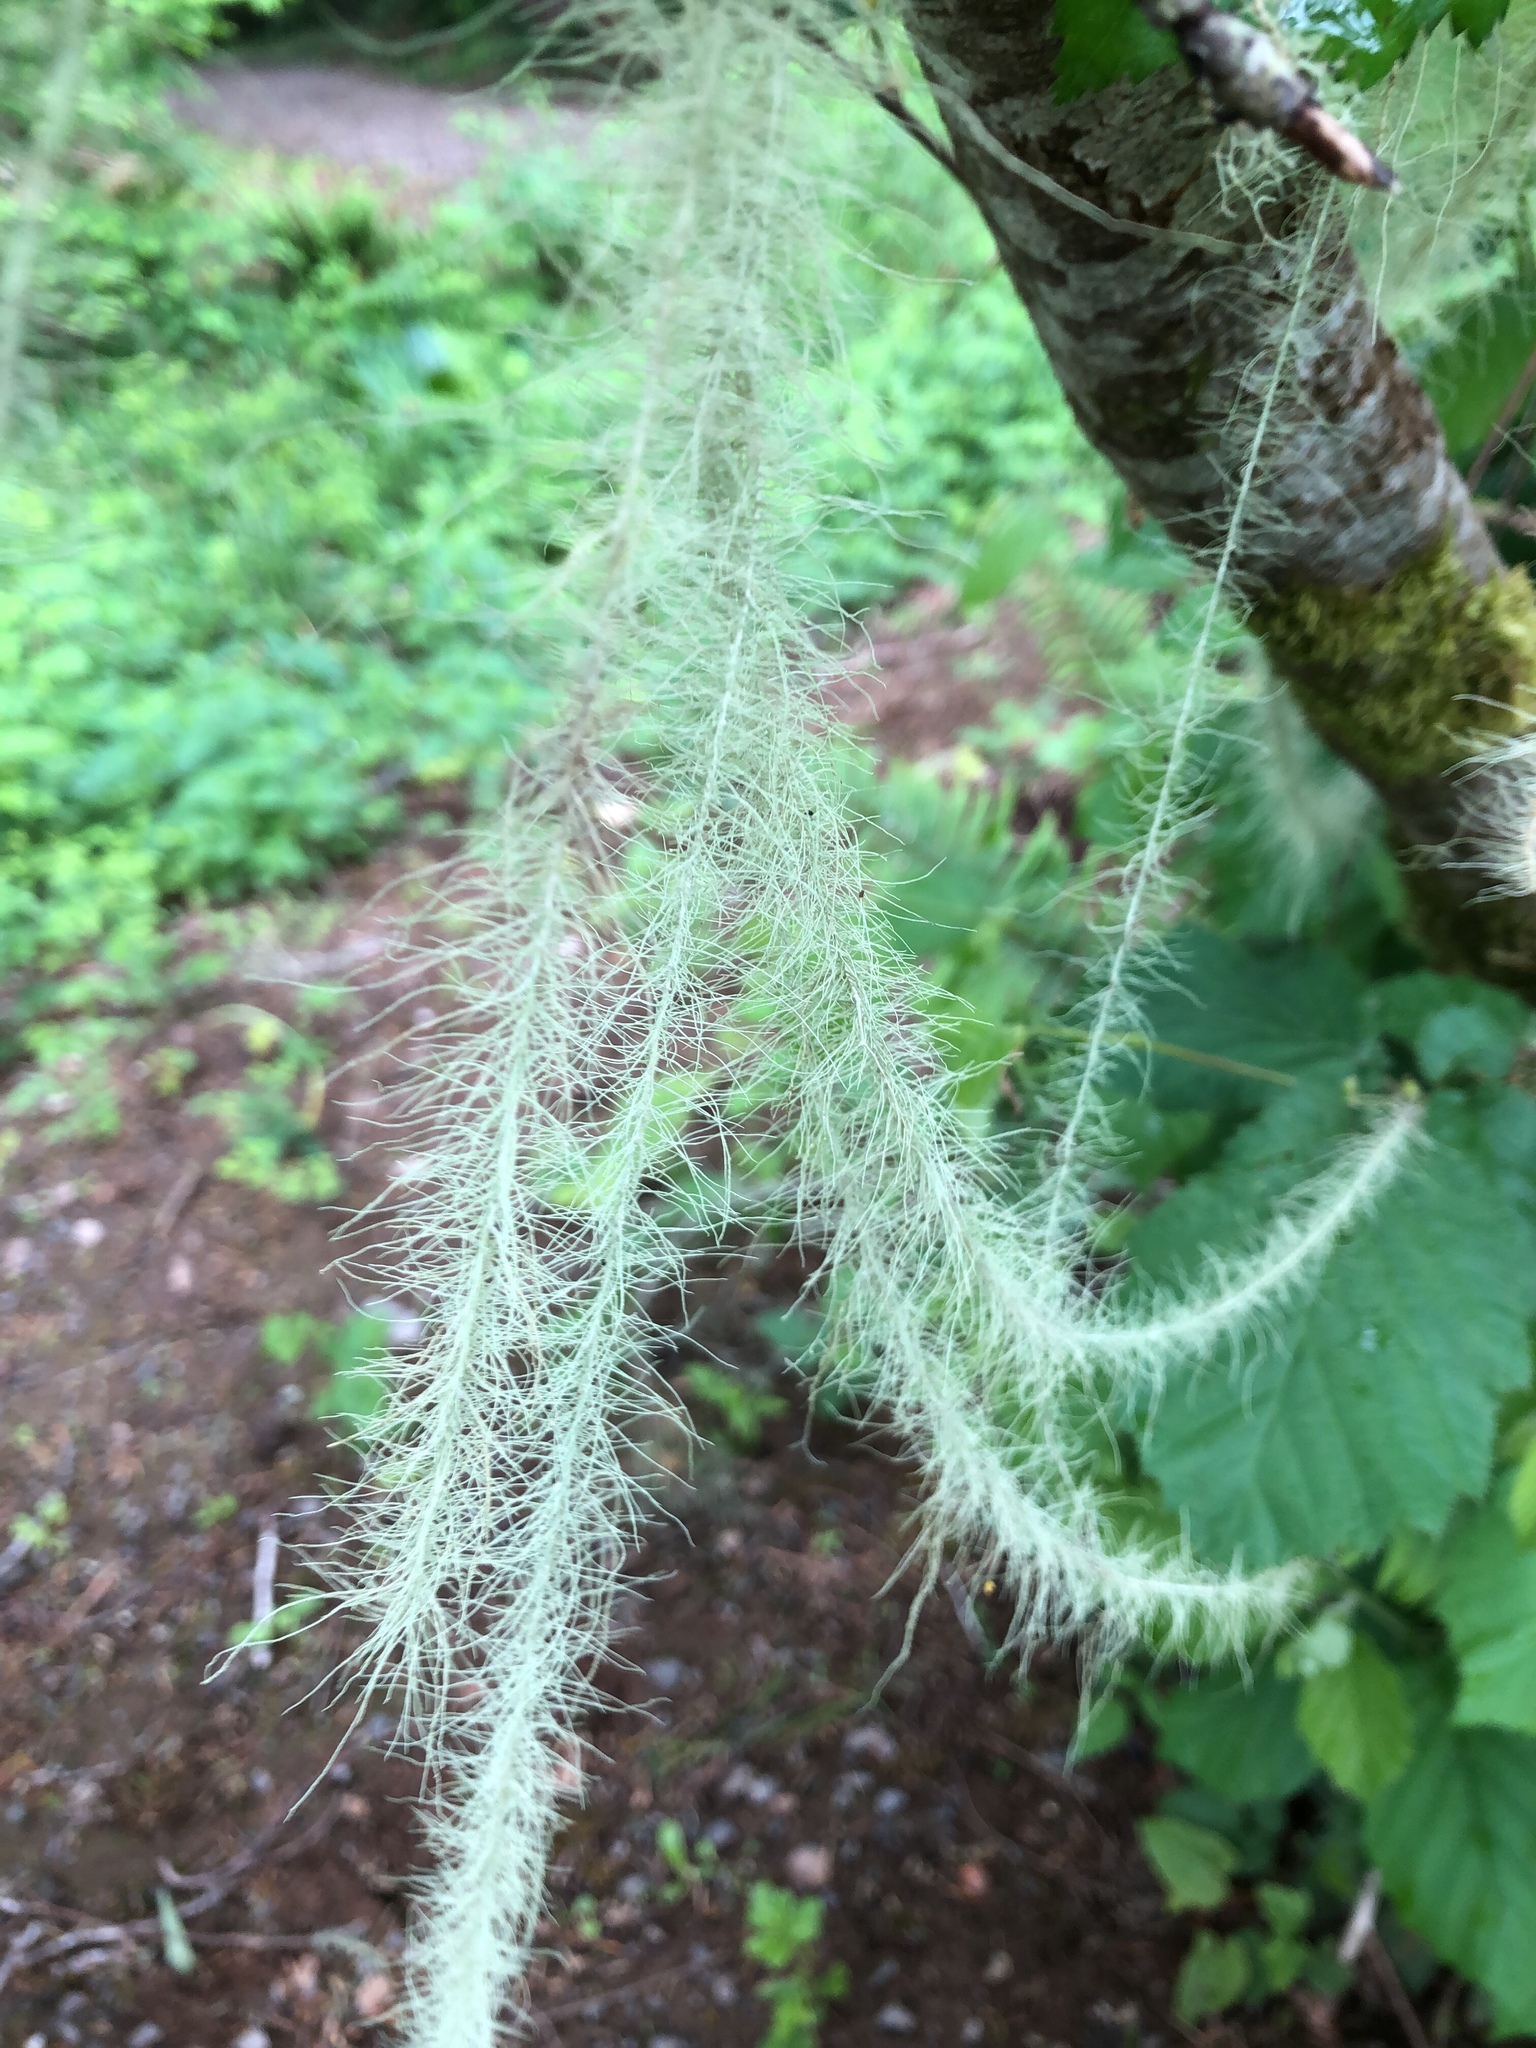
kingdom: Fungi
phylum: Ascomycota
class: Lecanoromycetes
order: Lecanorales
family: Parmeliaceae
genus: Dolichousnea
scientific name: Dolichousnea longissima
